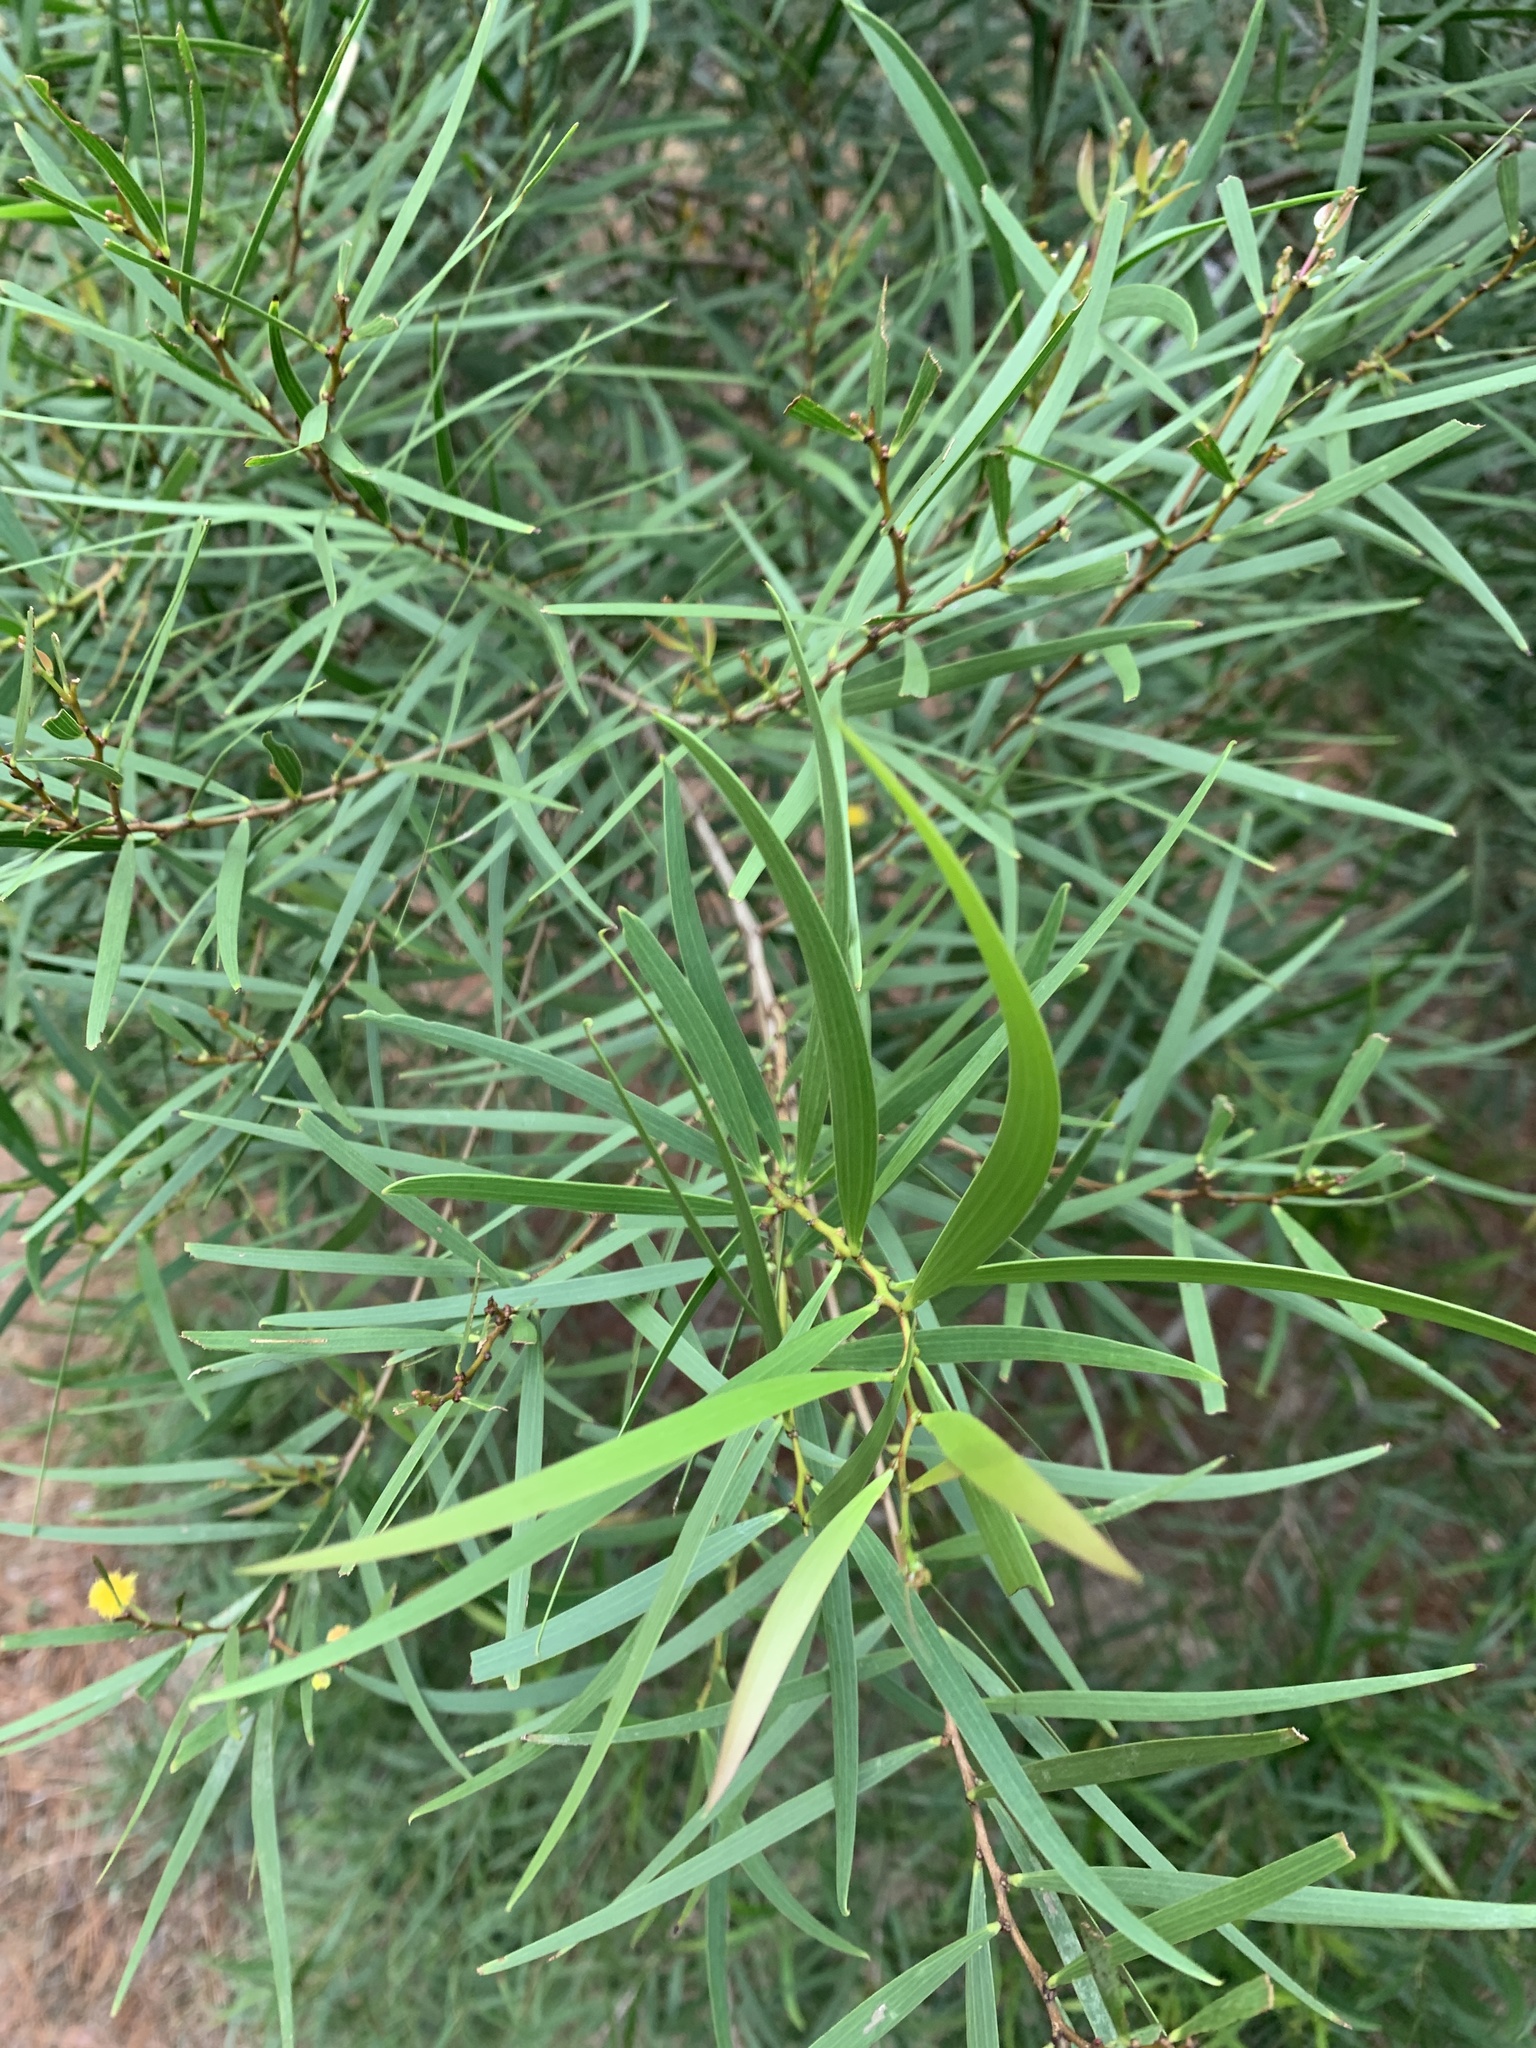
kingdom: Plantae
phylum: Tracheophyta
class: Magnoliopsida
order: Fabales
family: Fabaceae
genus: Acacia
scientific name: Acacia confusa
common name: Formosan koa
